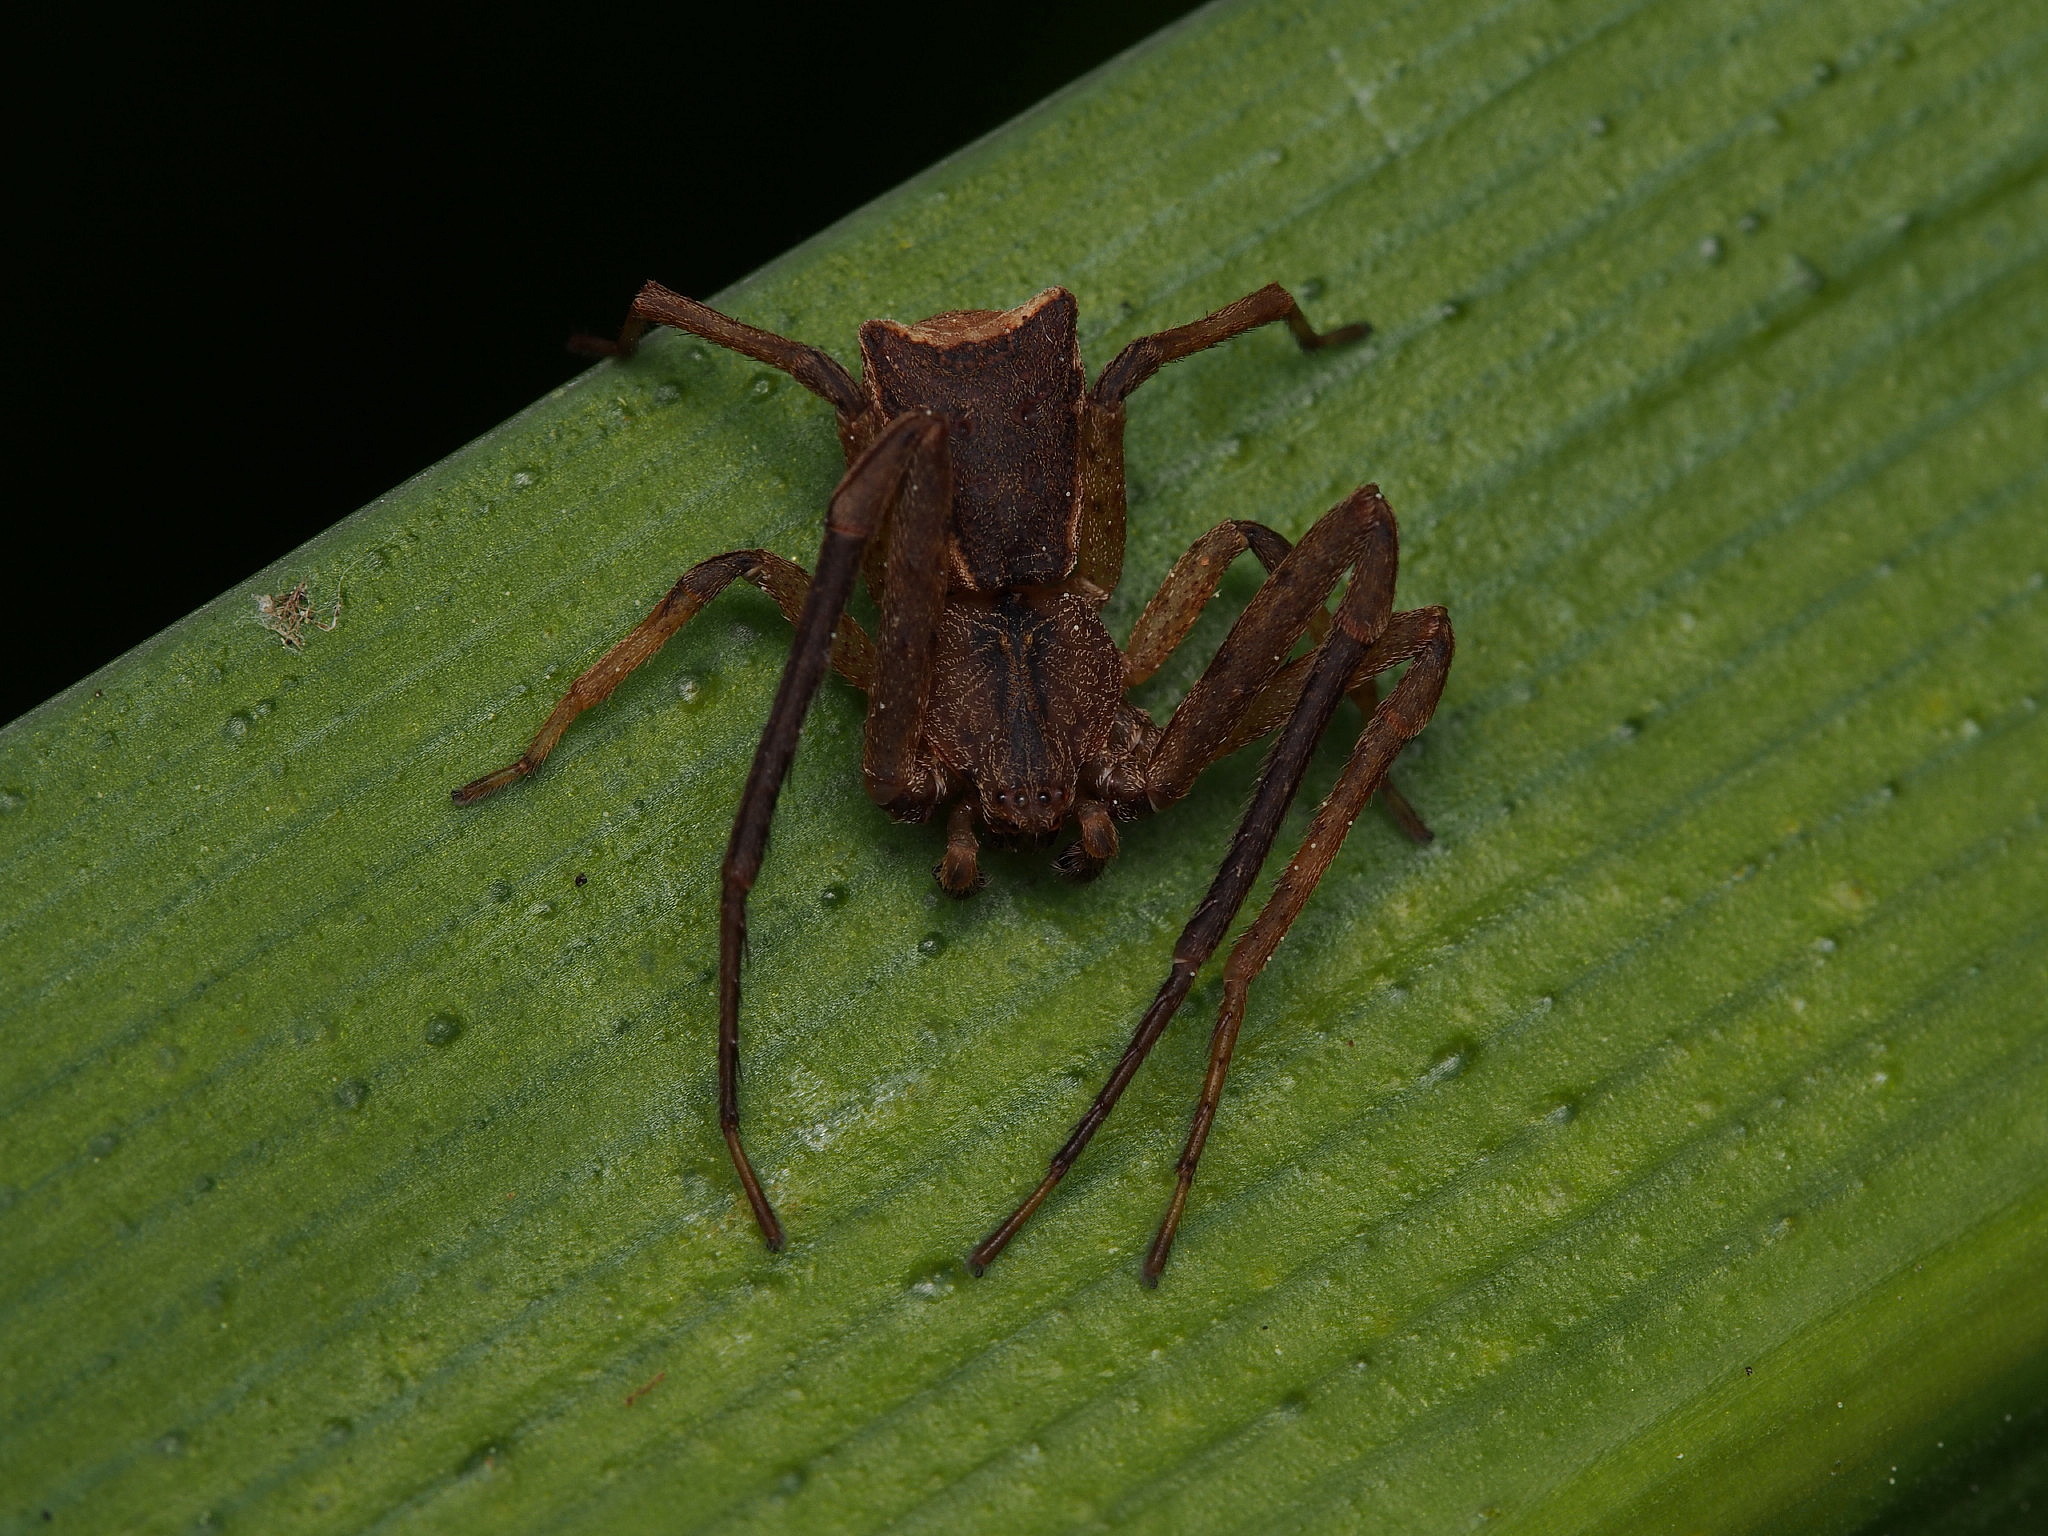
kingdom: Animalia
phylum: Arthropoda
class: Arachnida
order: Araneae
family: Thomisidae
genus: Sidymella
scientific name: Sidymella angularis
